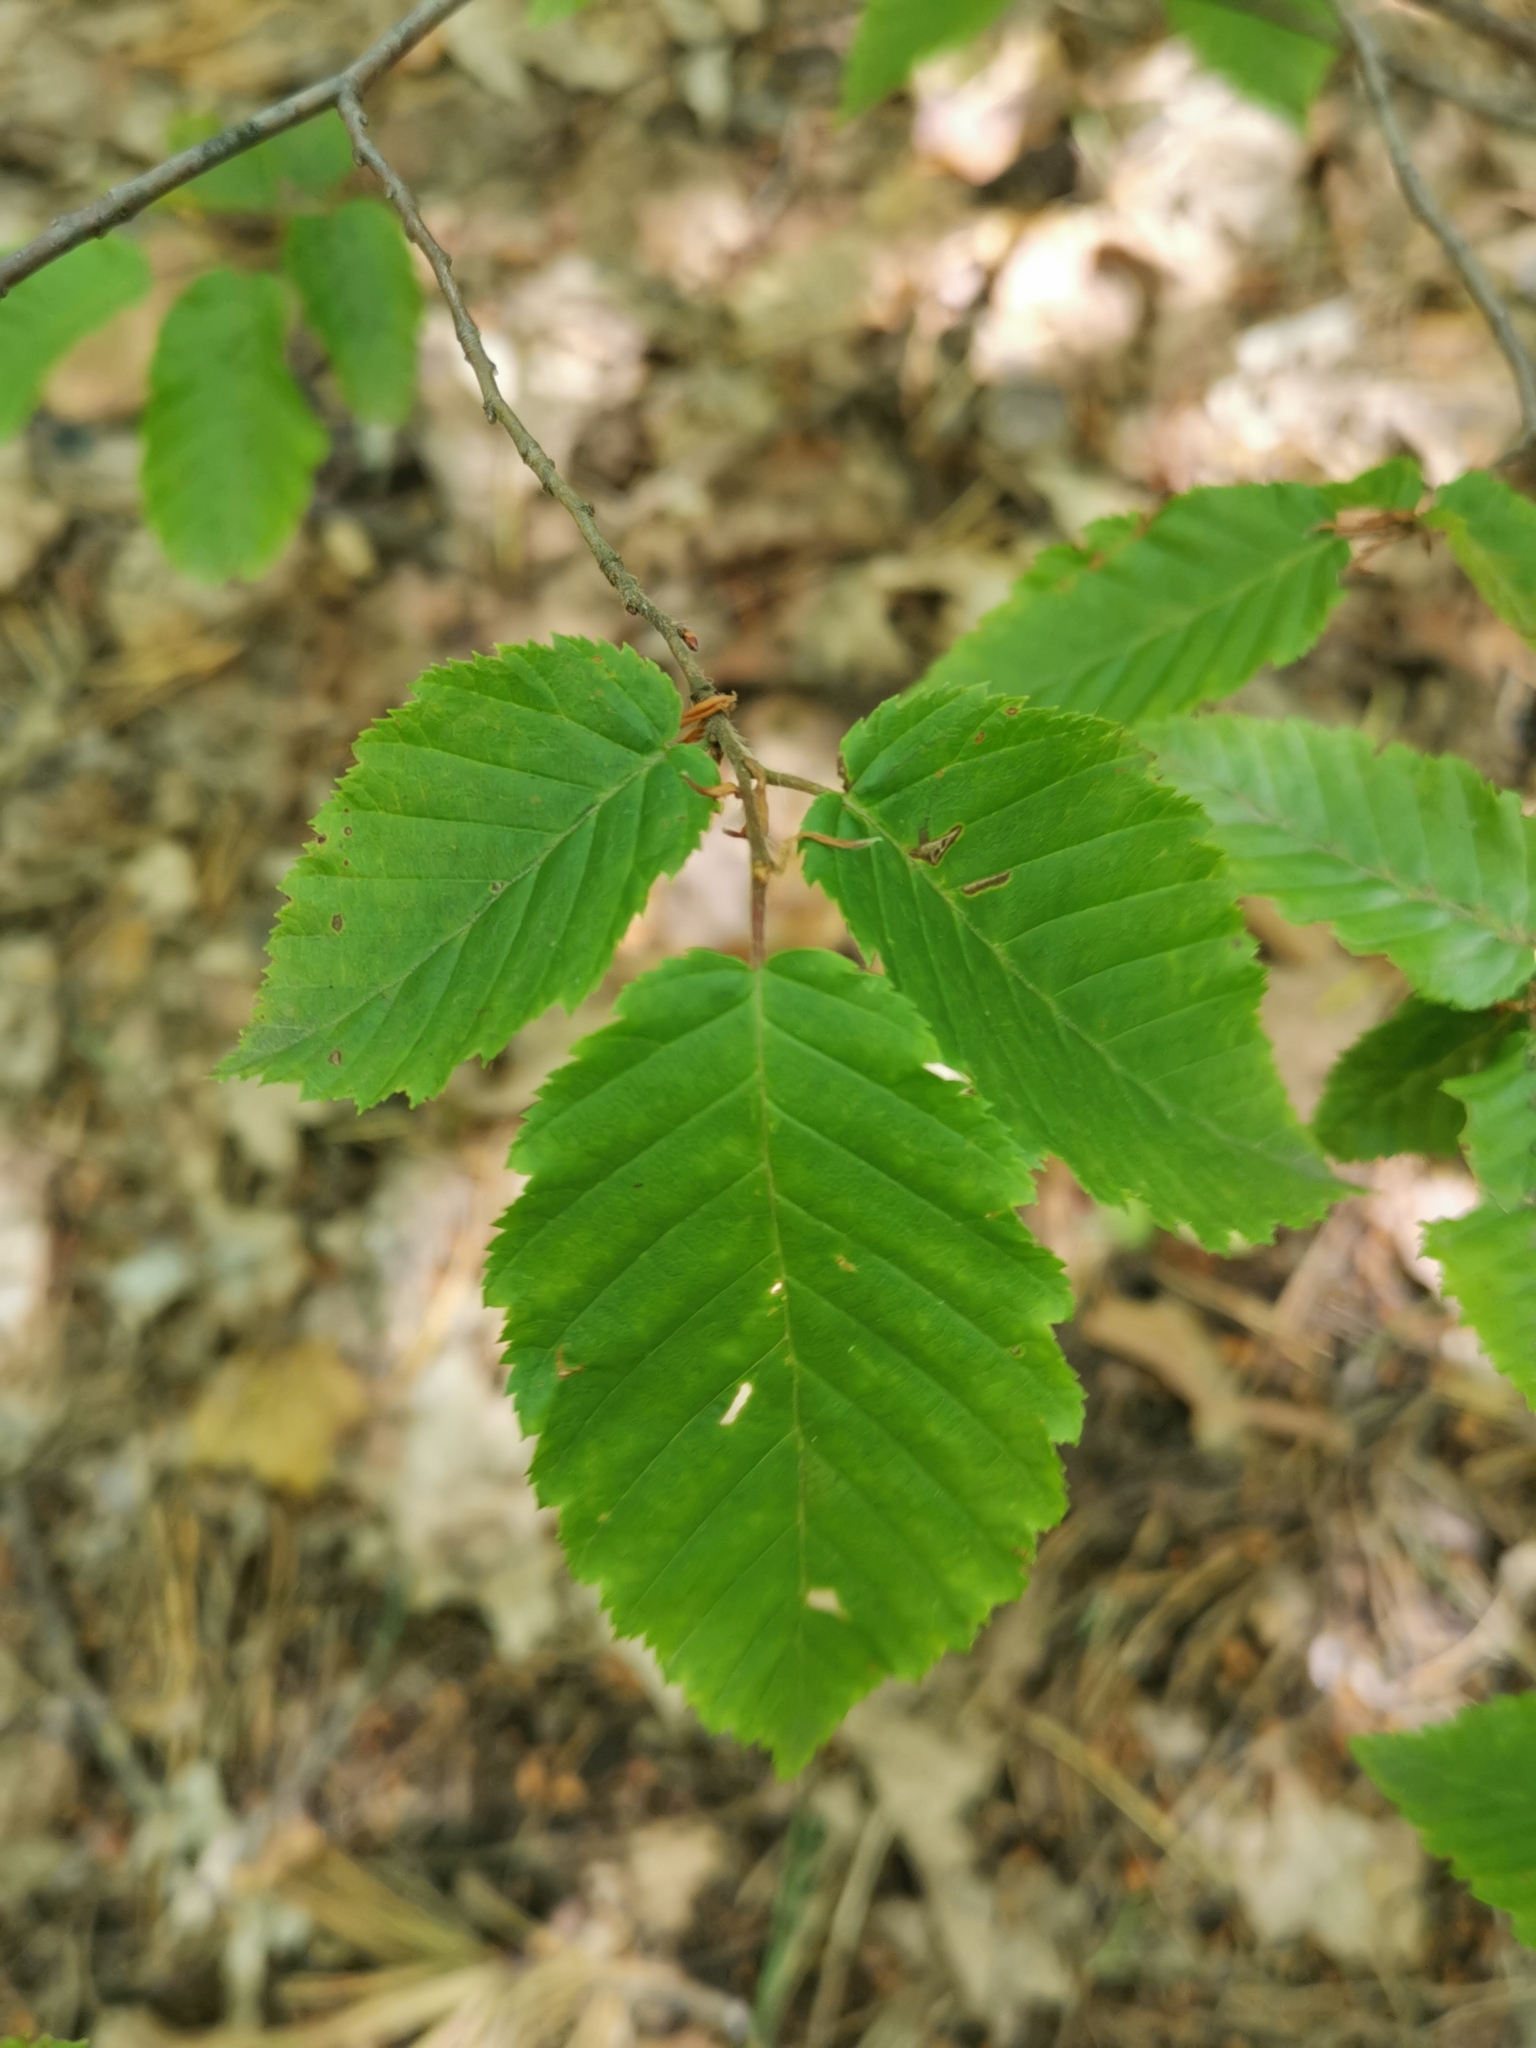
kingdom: Plantae
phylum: Tracheophyta
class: Magnoliopsida
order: Fagales
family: Betulaceae
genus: Carpinus
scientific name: Carpinus betulus
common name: Hornbeam
